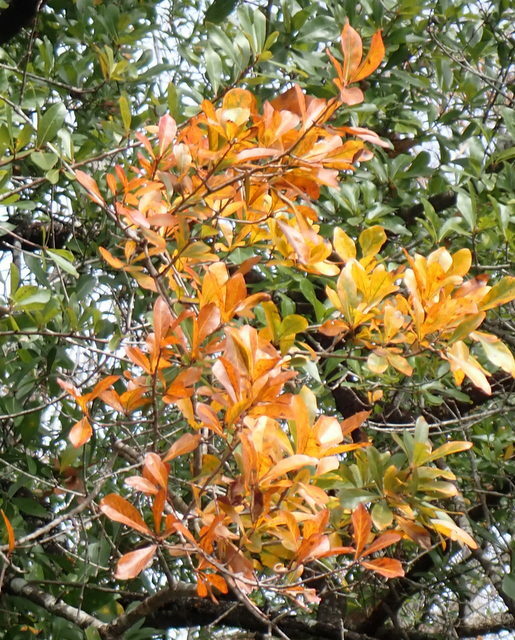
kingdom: Plantae
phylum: Tracheophyta
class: Magnoliopsida
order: Fagales
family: Fagaceae
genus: Quercus
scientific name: Quercus nigra
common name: Water oak
